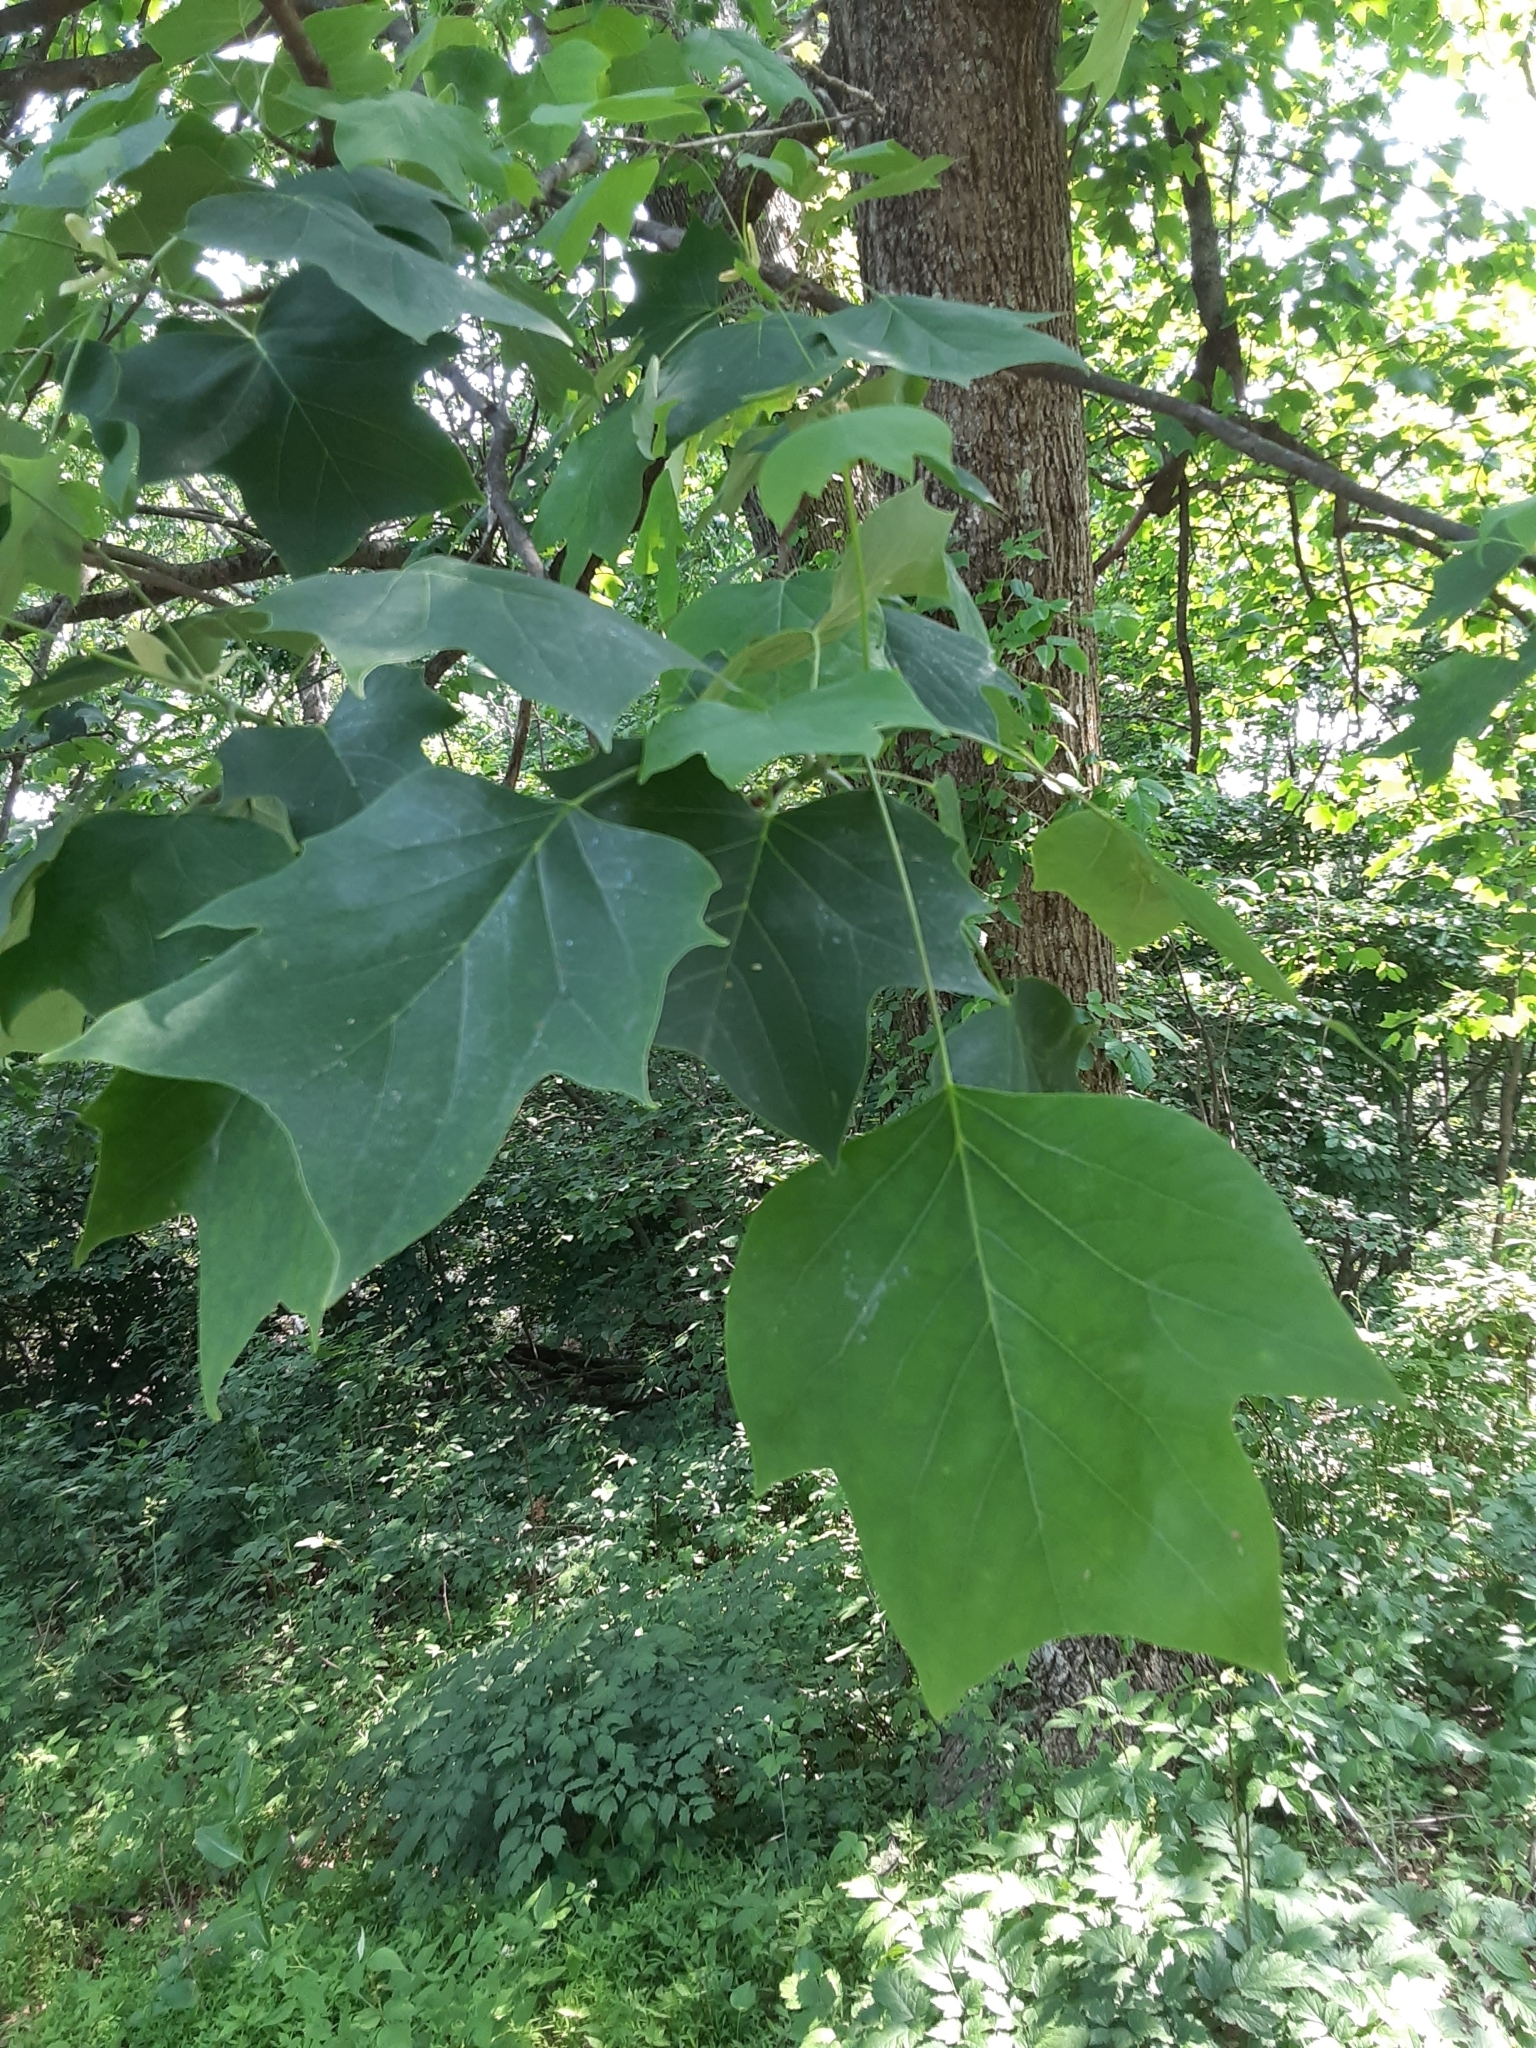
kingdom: Plantae
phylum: Tracheophyta
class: Magnoliopsida
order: Magnoliales
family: Magnoliaceae
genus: Liriodendron
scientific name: Liriodendron tulipifera
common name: Tulip tree
